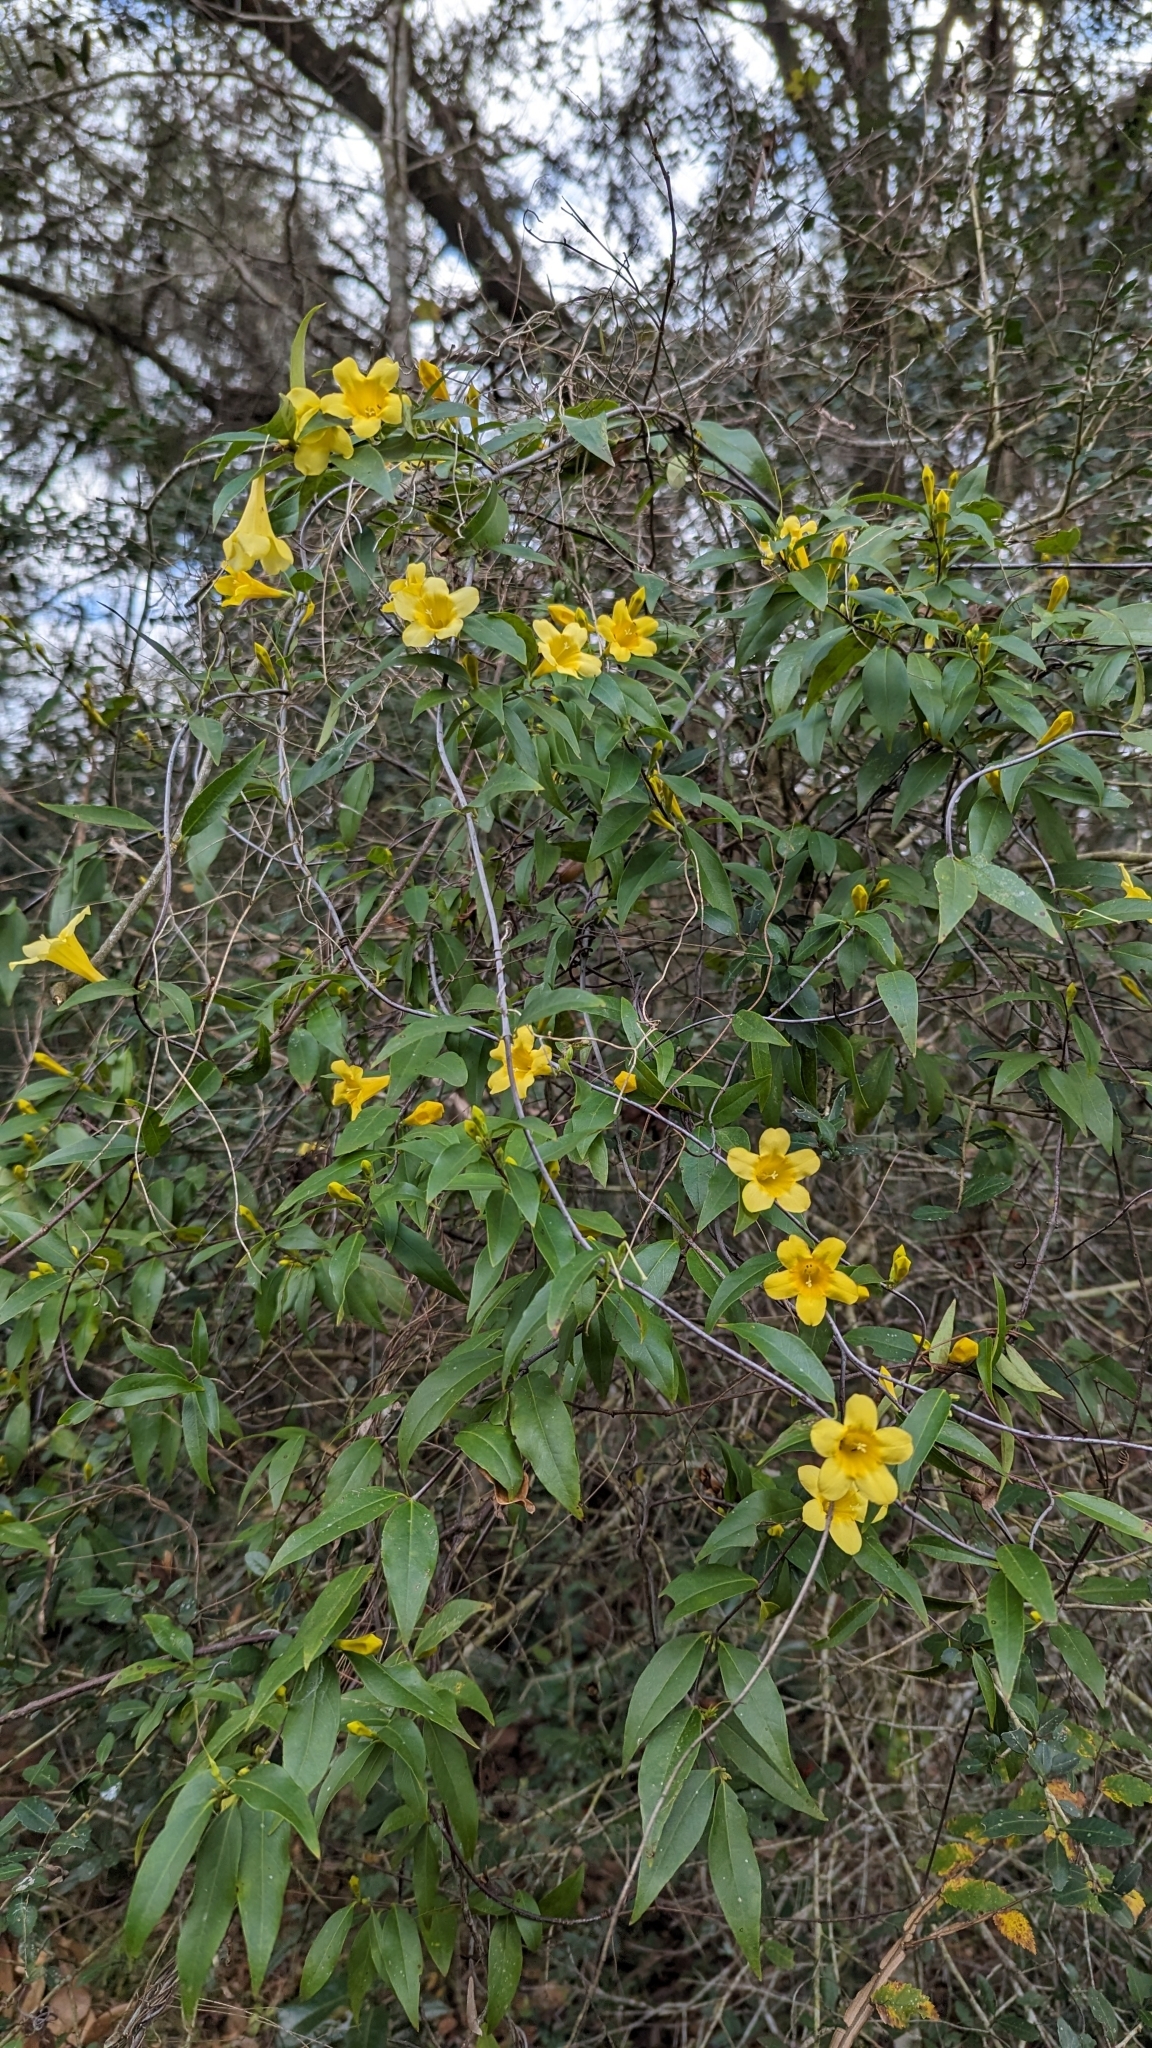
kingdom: Plantae
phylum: Tracheophyta
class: Magnoliopsida
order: Gentianales
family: Gelsemiaceae
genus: Gelsemium
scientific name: Gelsemium sempervirens
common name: Carolina-jasmine
